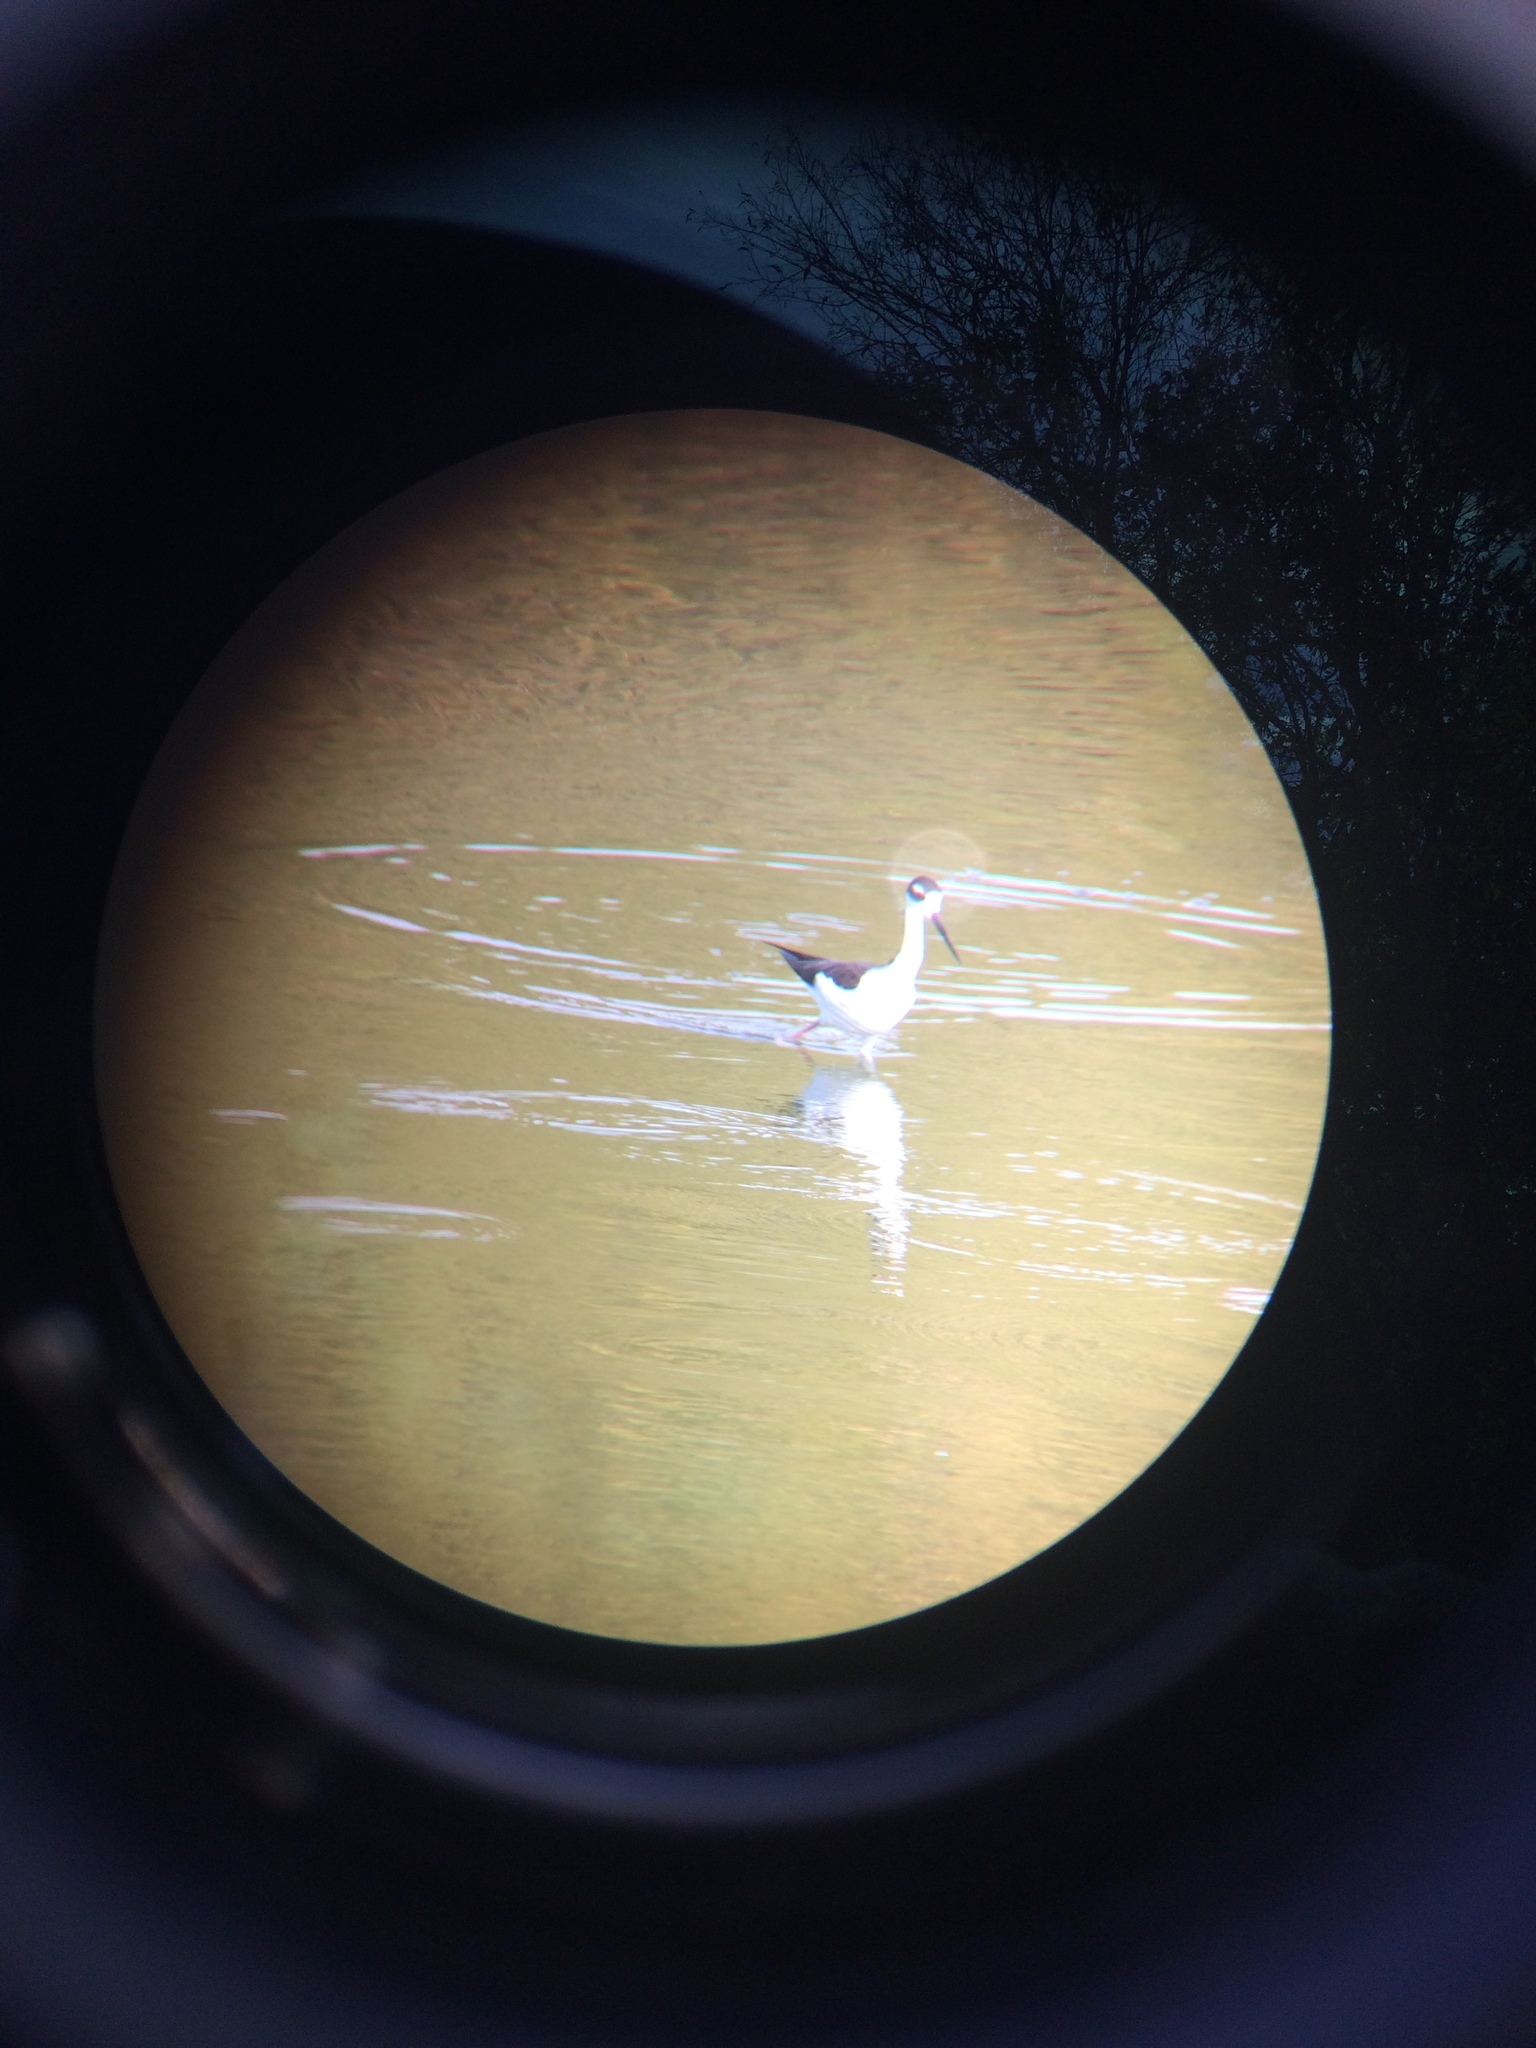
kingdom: Animalia
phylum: Chordata
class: Aves
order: Charadriiformes
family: Recurvirostridae
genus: Himantopus
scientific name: Himantopus mexicanus
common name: Black-necked stilt
